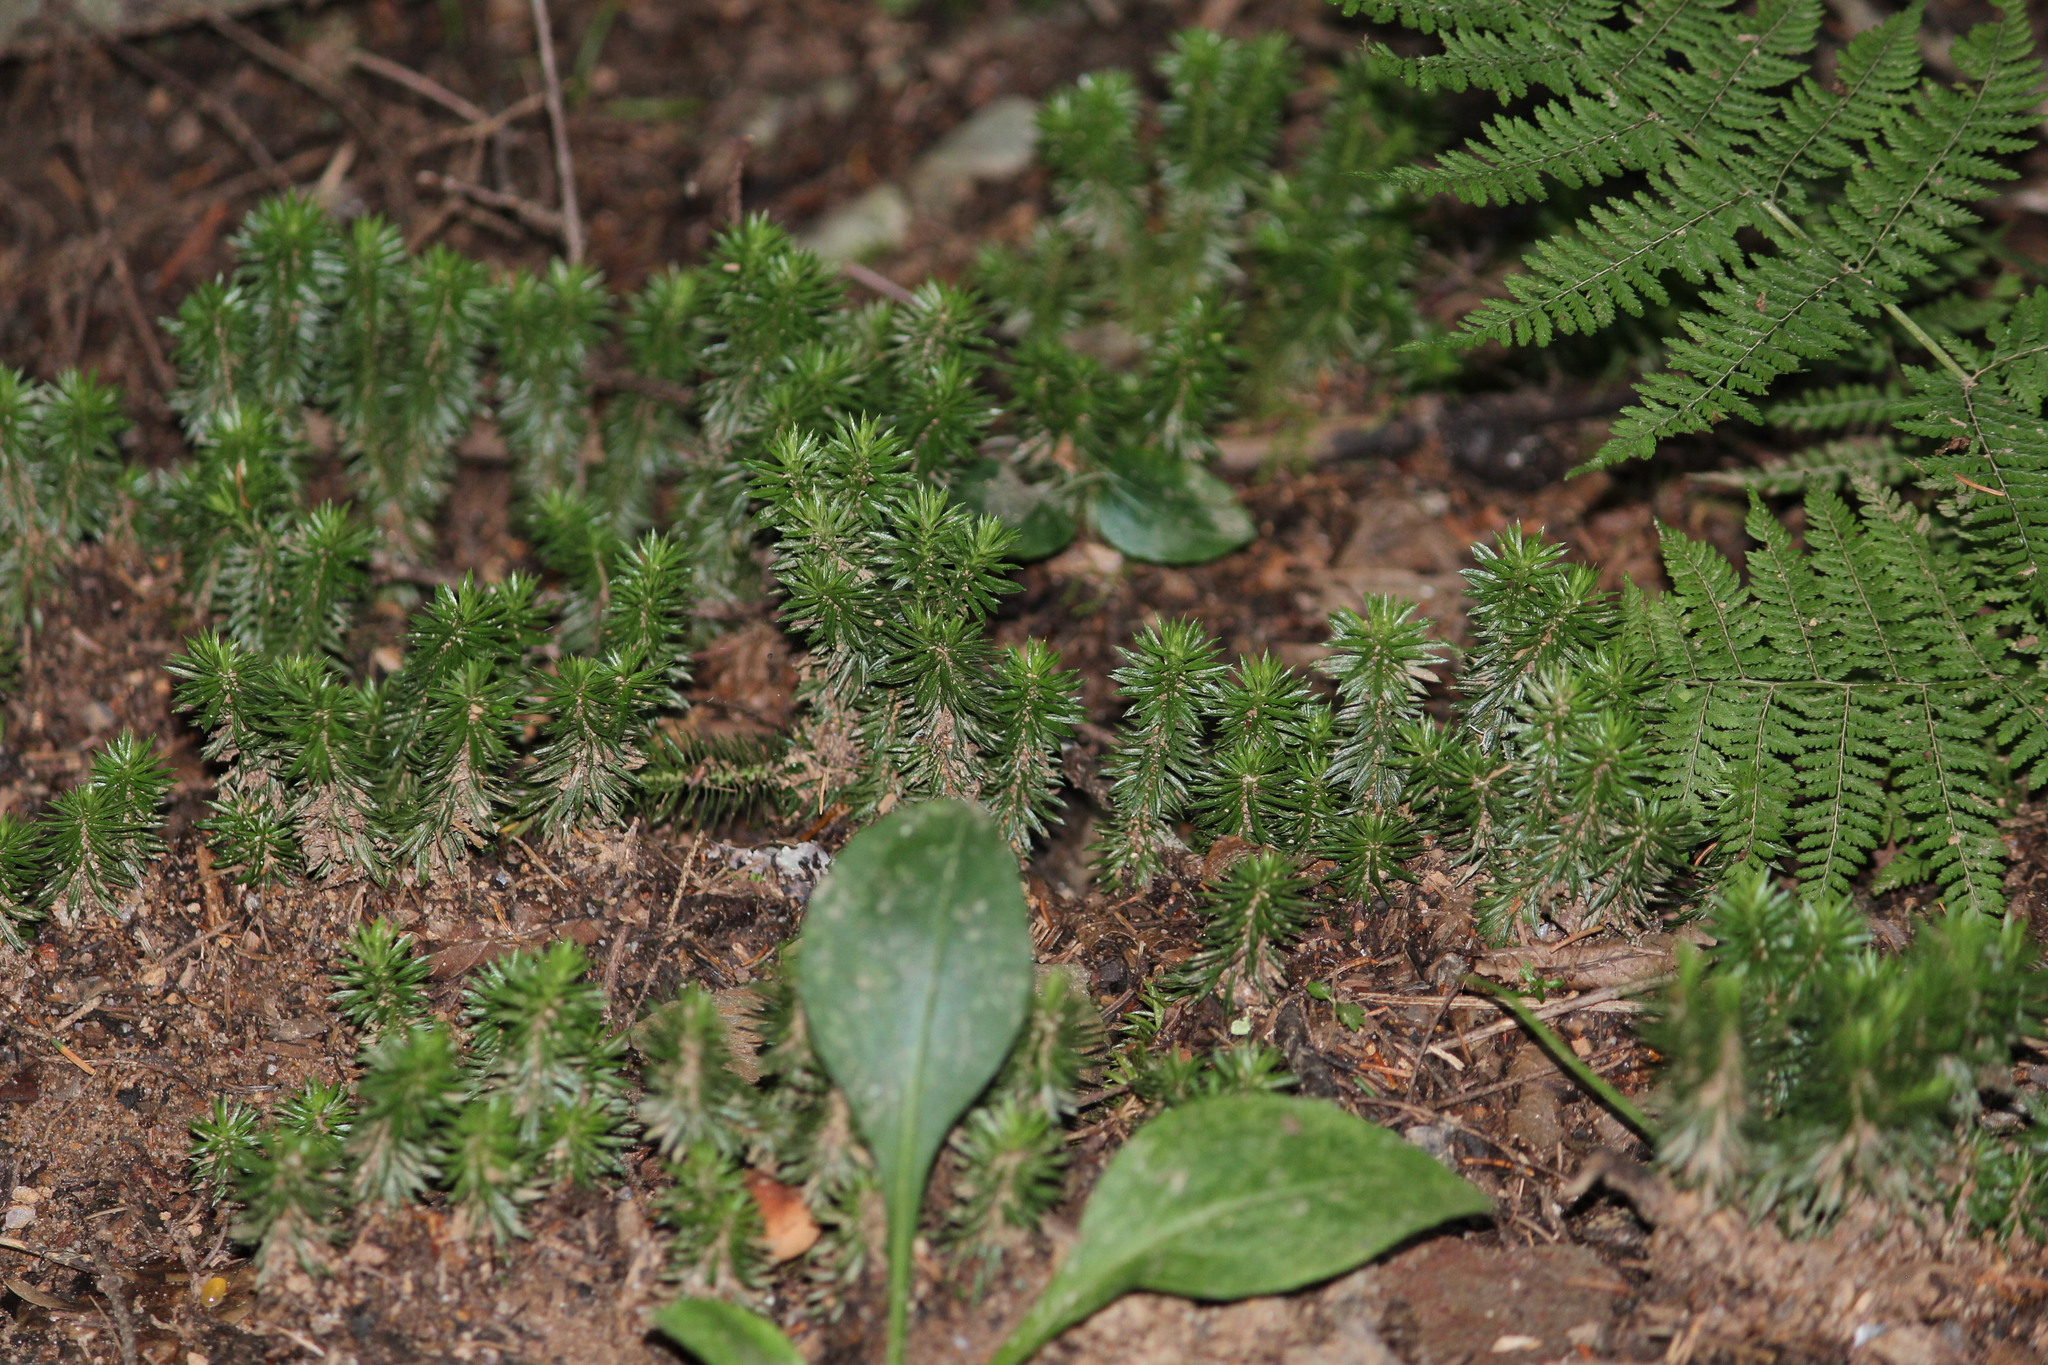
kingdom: Plantae
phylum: Tracheophyta
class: Lycopodiopsida
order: Lycopodiales
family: Lycopodiaceae
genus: Huperzia
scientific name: Huperzia lucidula
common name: Shining clubmoss
